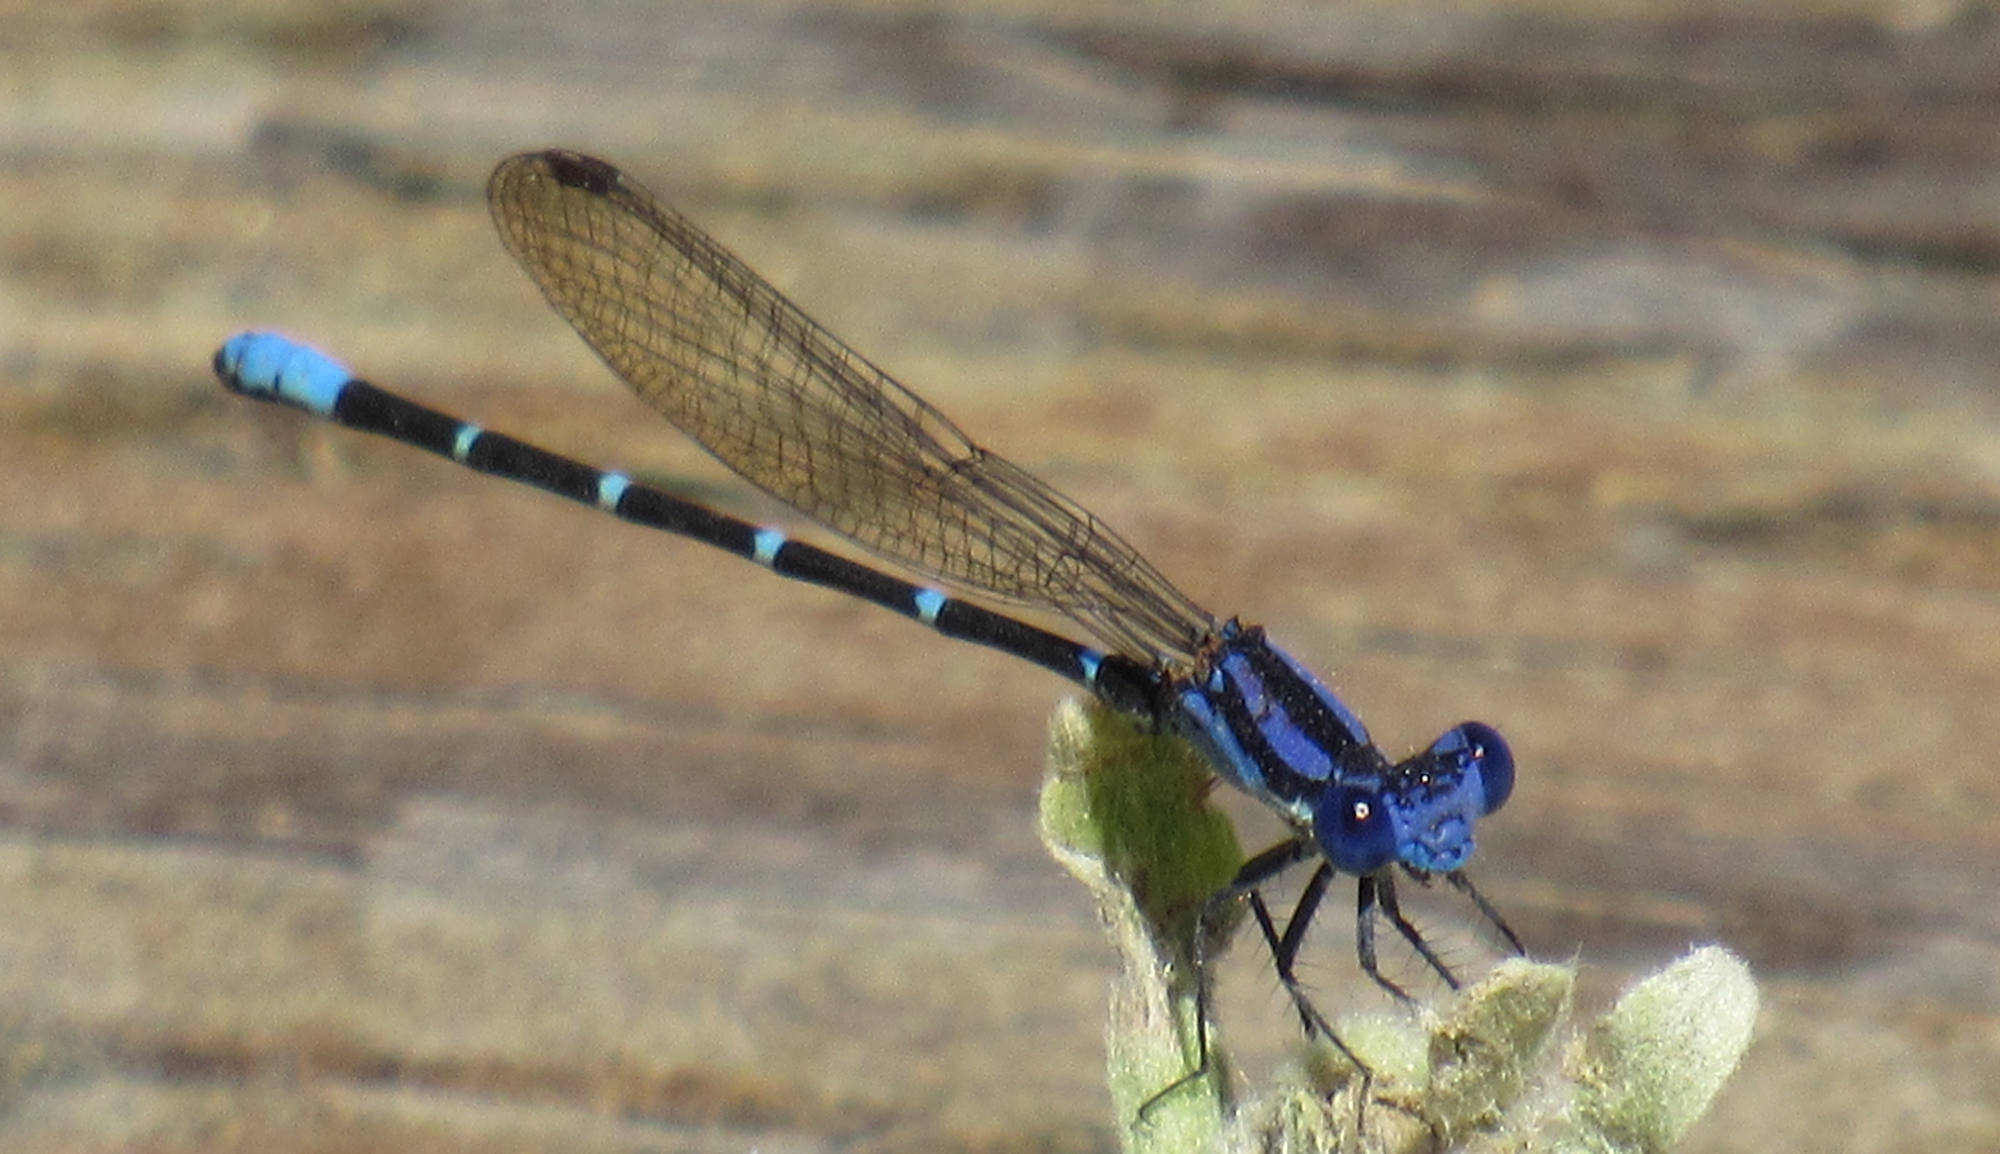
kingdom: Animalia
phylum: Arthropoda
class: Insecta
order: Odonata
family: Coenagrionidae
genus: Argia
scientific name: Argia sedula
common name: Blue-ringed dancer
